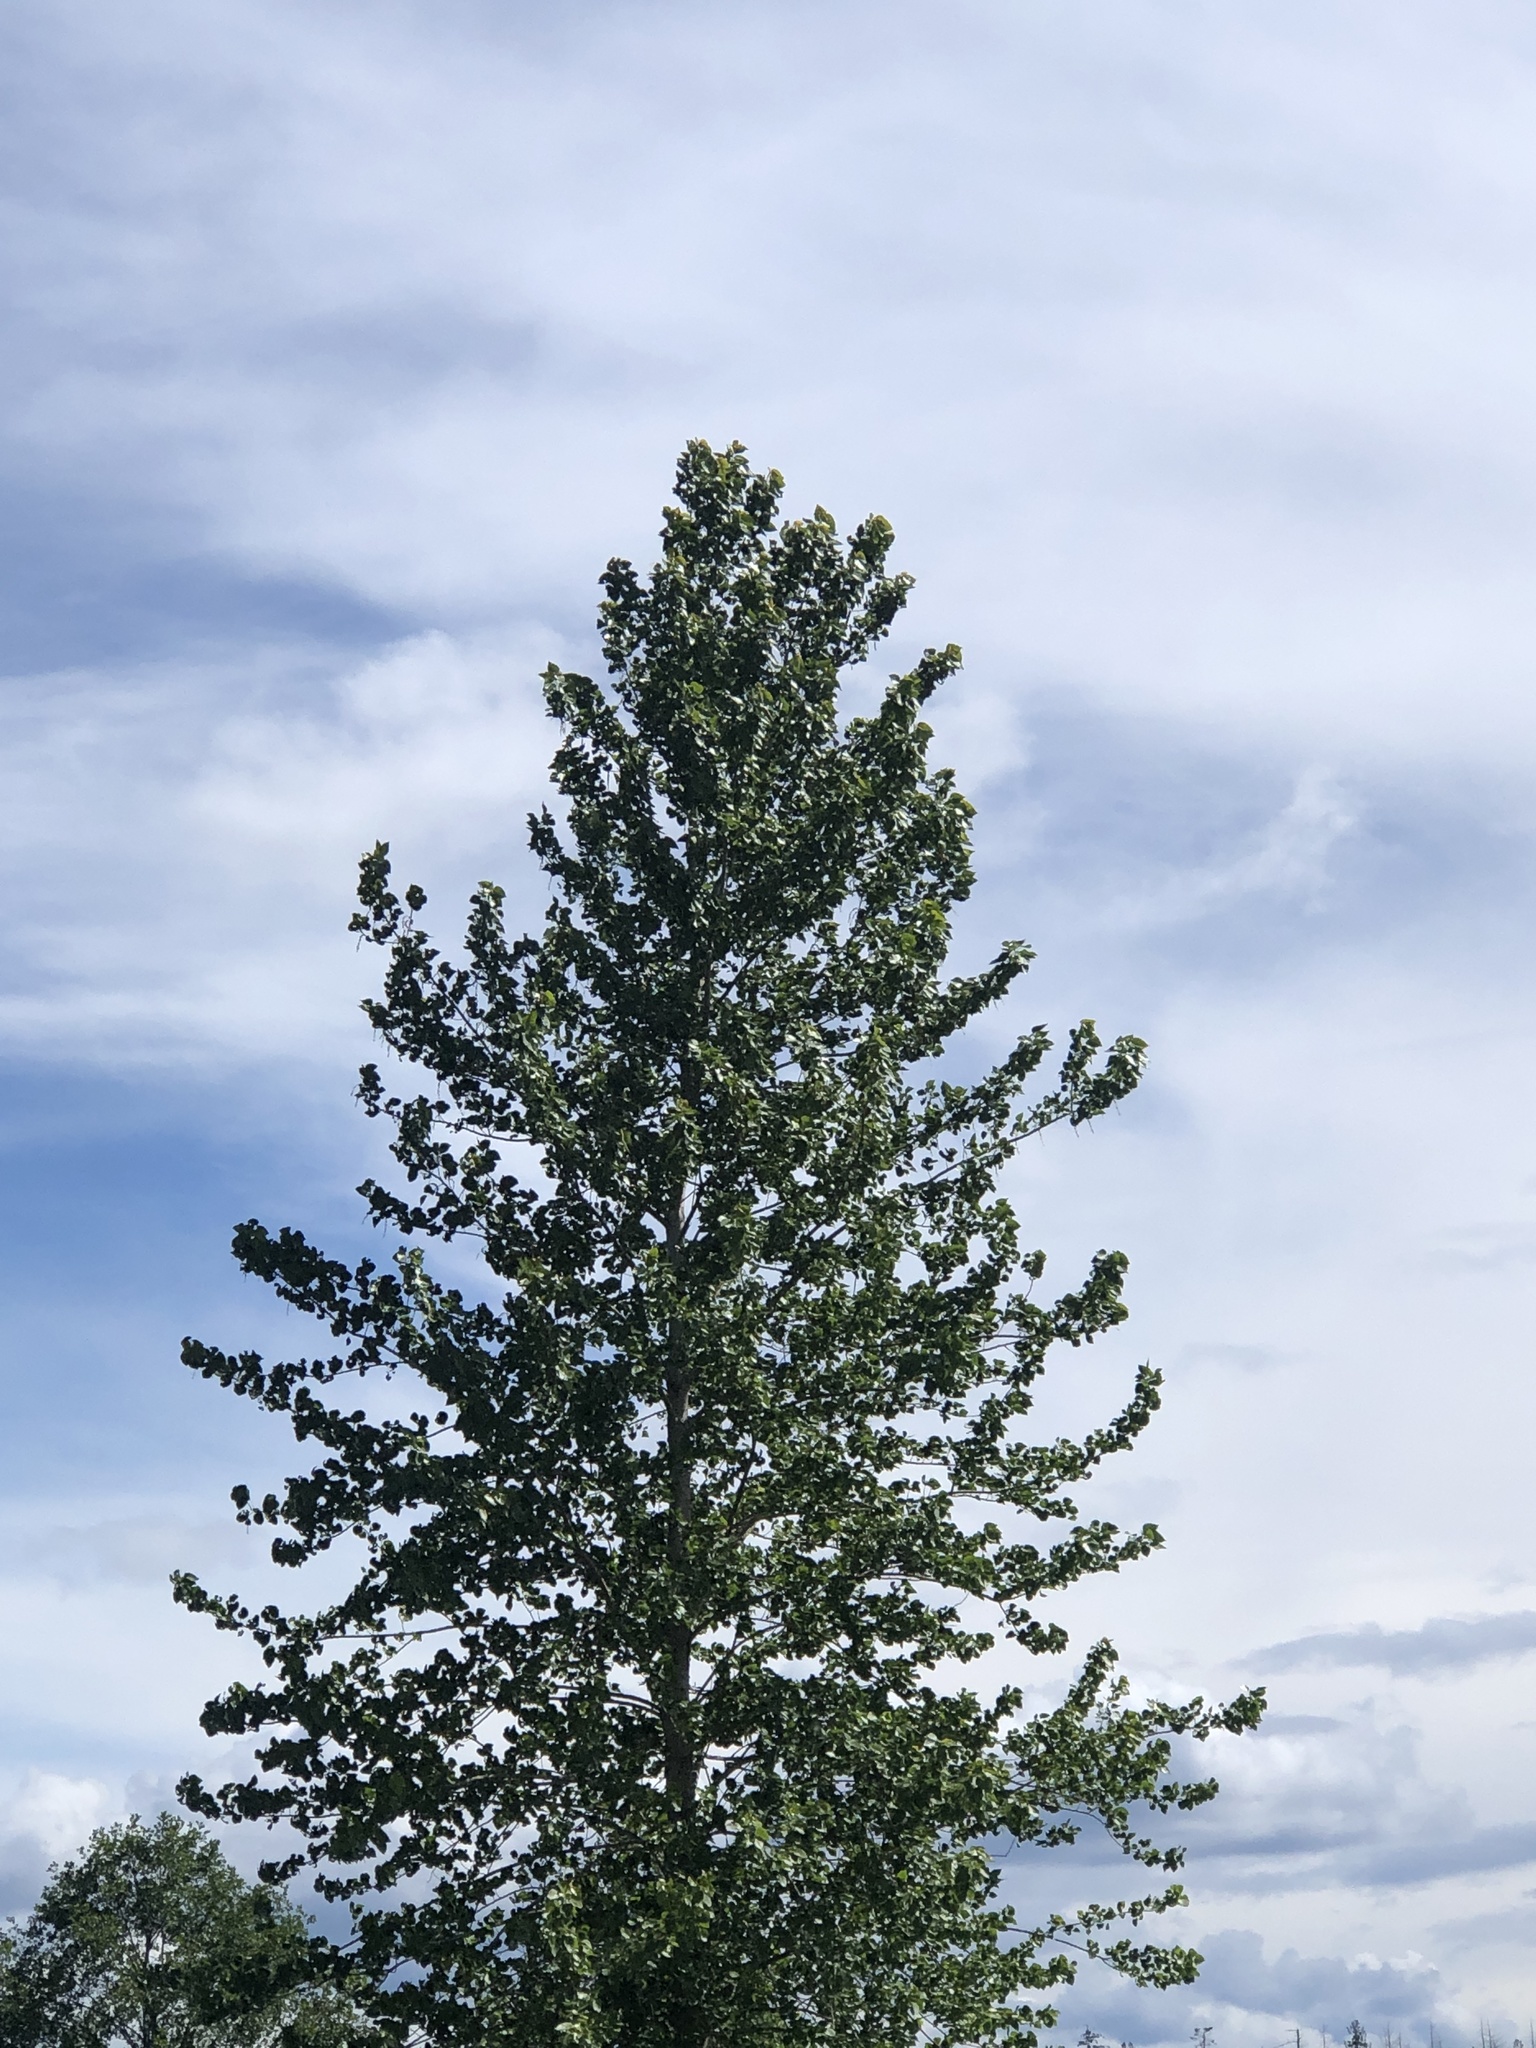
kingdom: Plantae
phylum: Tracheophyta
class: Magnoliopsida
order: Malpighiales
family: Salicaceae
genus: Populus
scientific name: Populus tremuloides
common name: Quaking aspen
